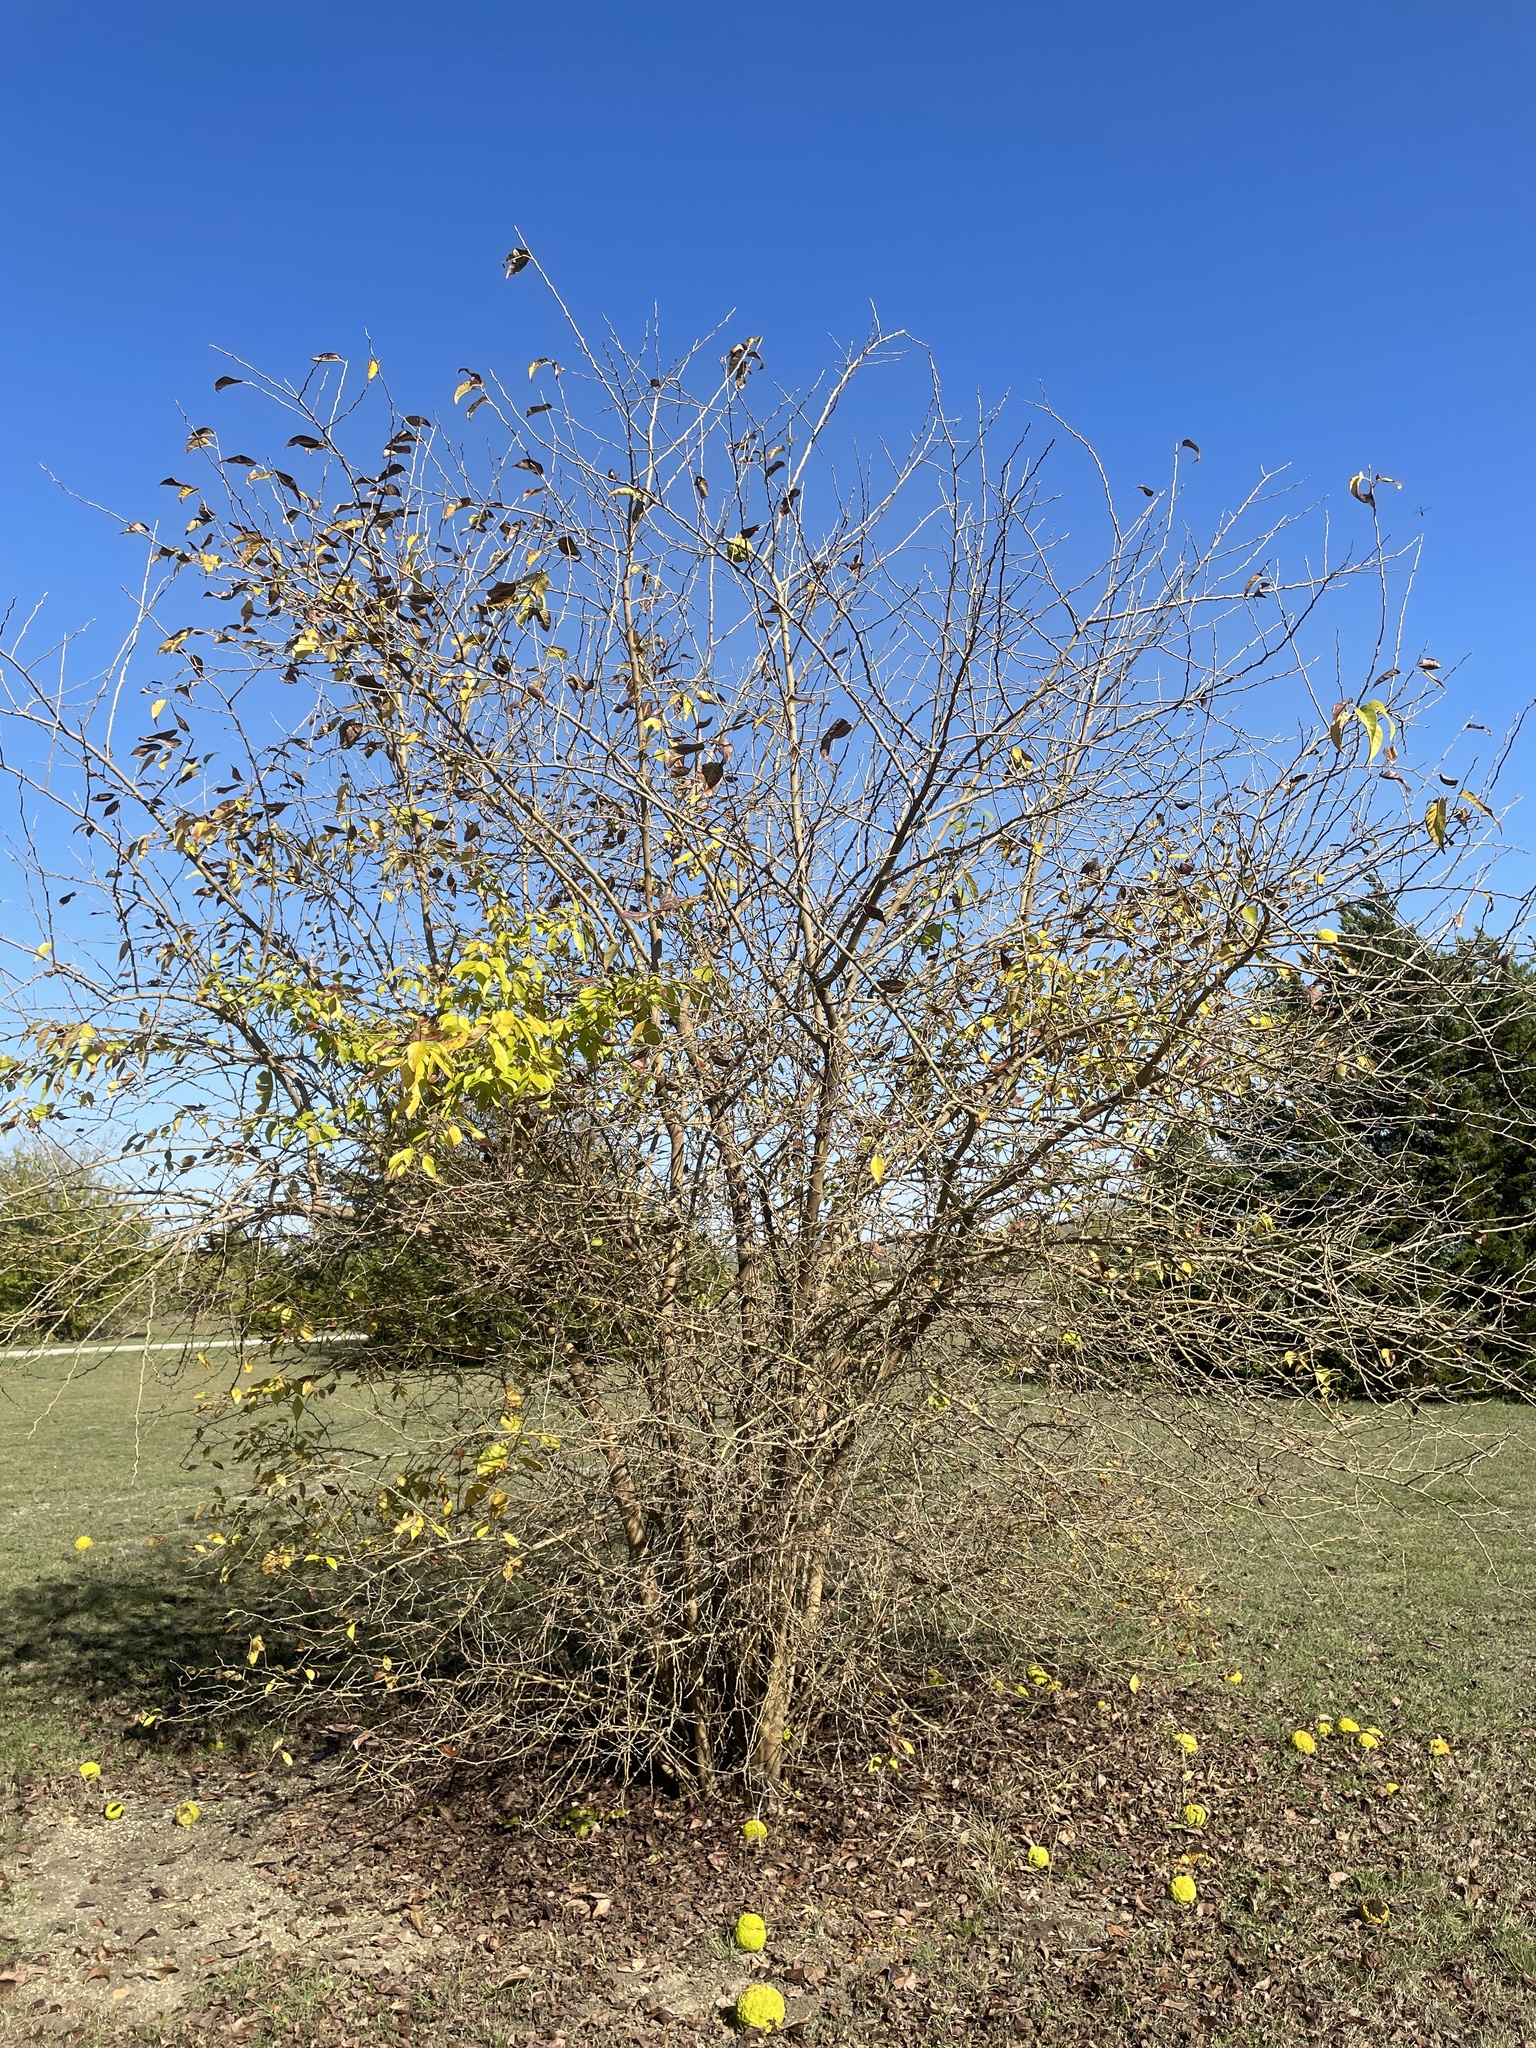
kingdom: Plantae
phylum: Tracheophyta
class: Magnoliopsida
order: Rosales
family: Moraceae
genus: Maclura
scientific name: Maclura pomifera
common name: Osage-orange
